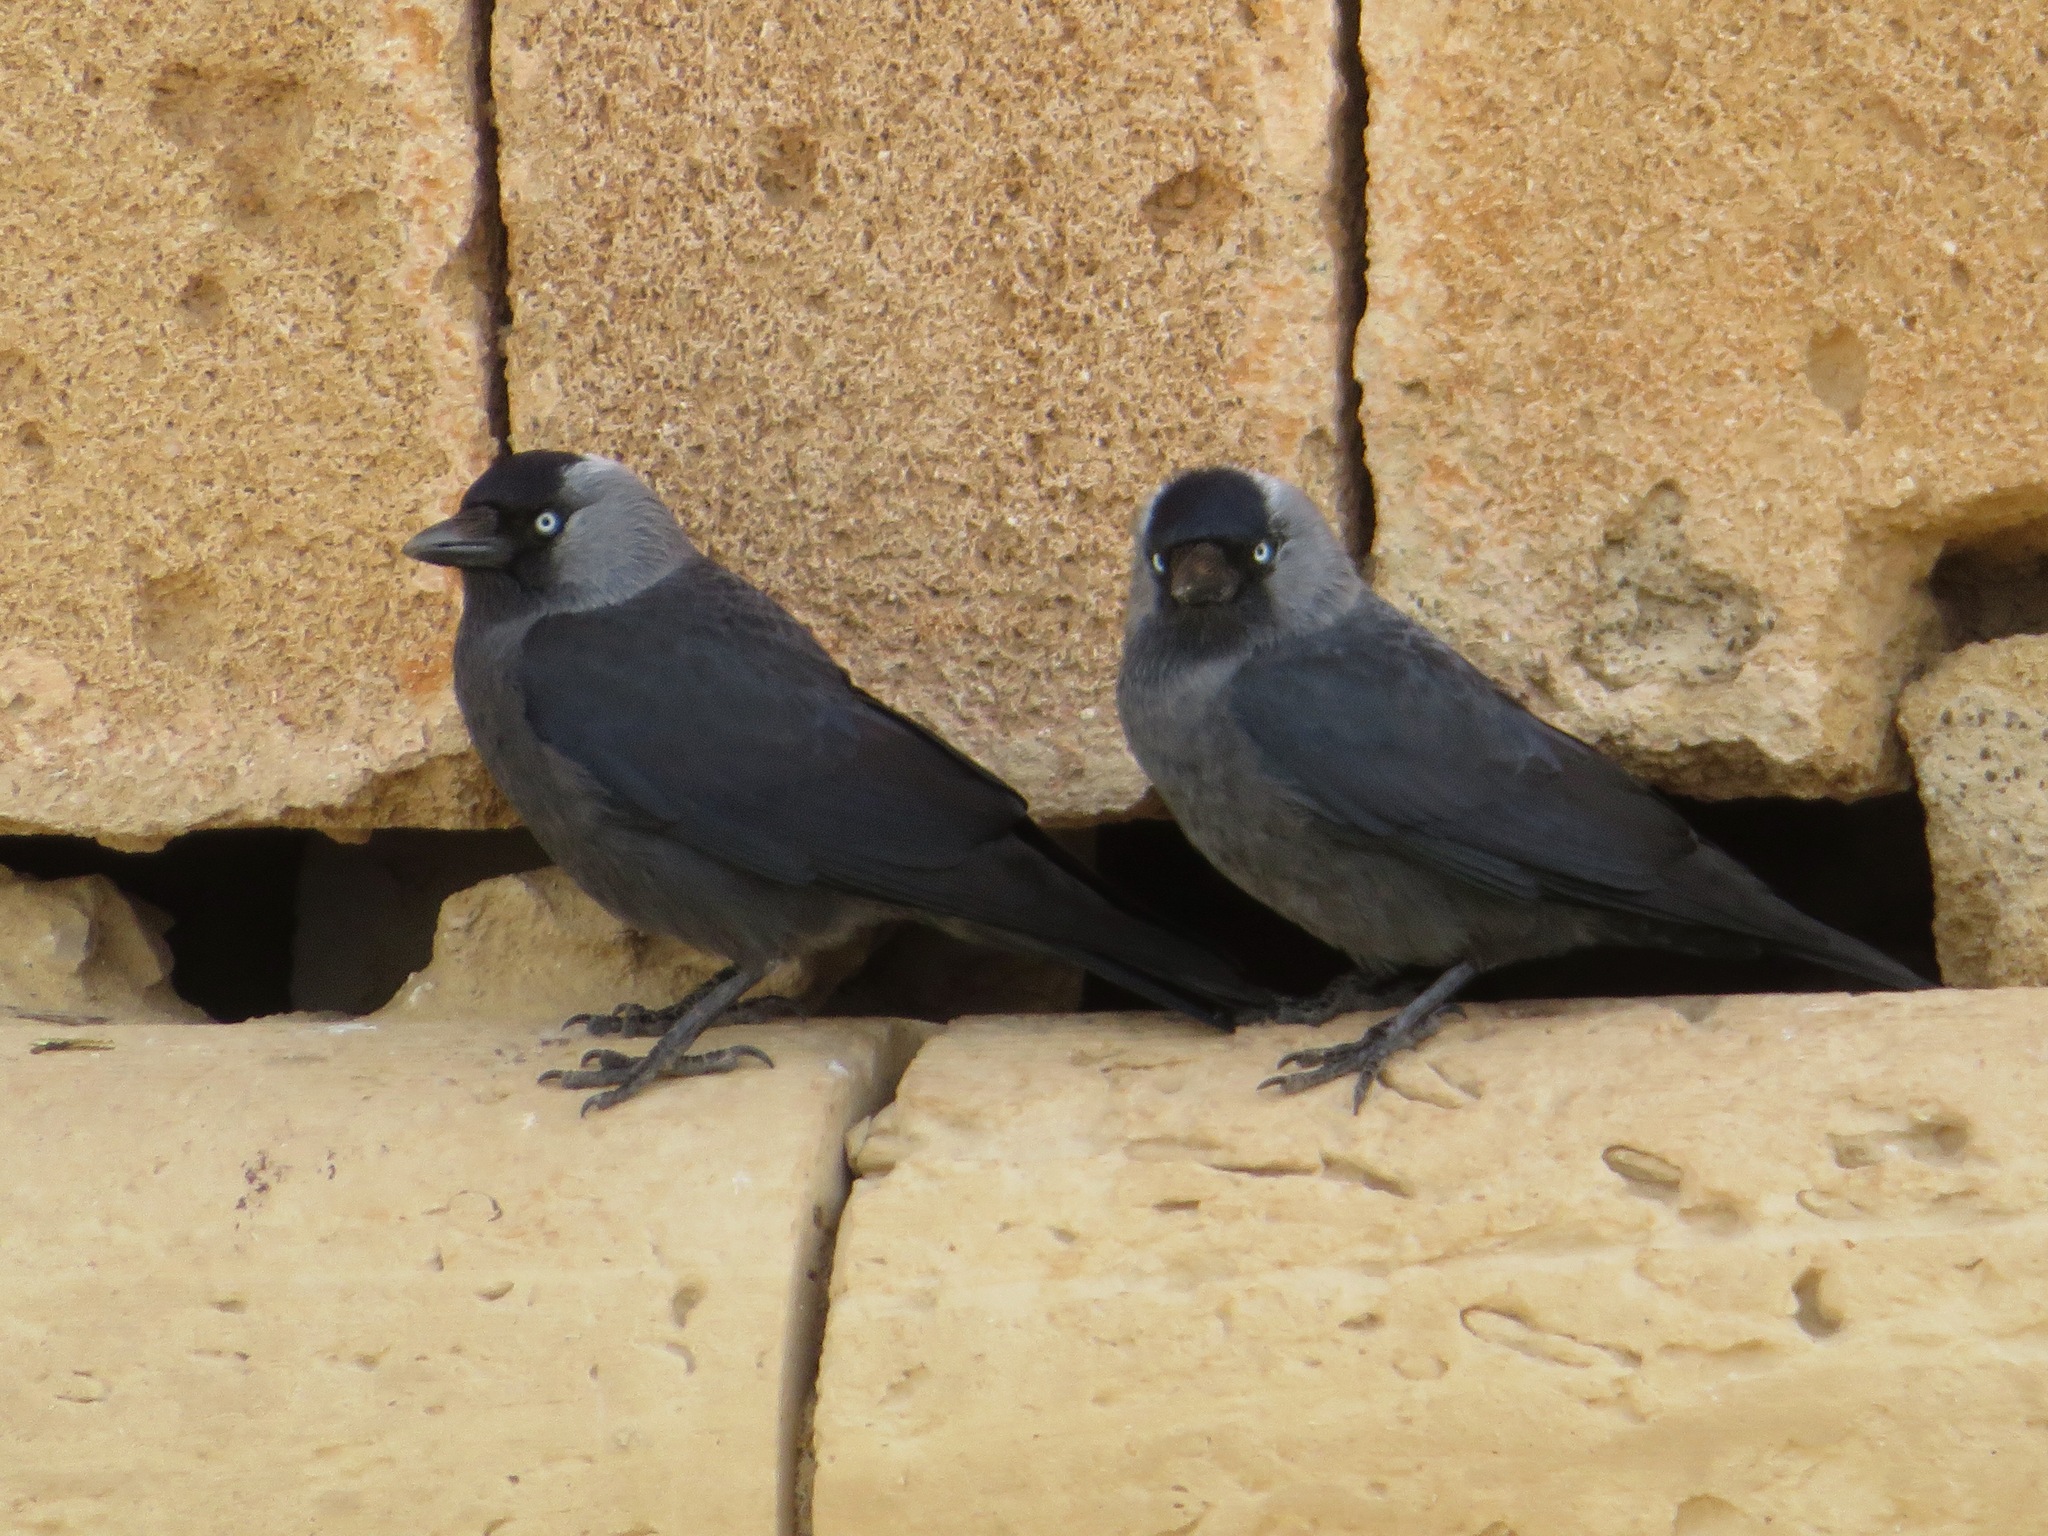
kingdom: Animalia
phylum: Chordata
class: Aves
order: Passeriformes
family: Corvidae
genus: Coloeus
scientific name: Coloeus monedula
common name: Western jackdaw
